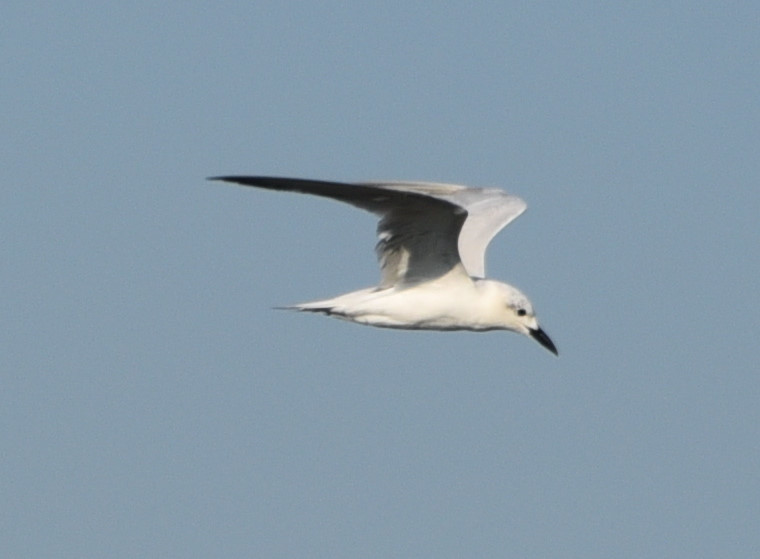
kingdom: Animalia
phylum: Chordata
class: Aves
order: Charadriiformes
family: Laridae
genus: Gelochelidon
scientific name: Gelochelidon nilotica
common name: Gull-billed tern
